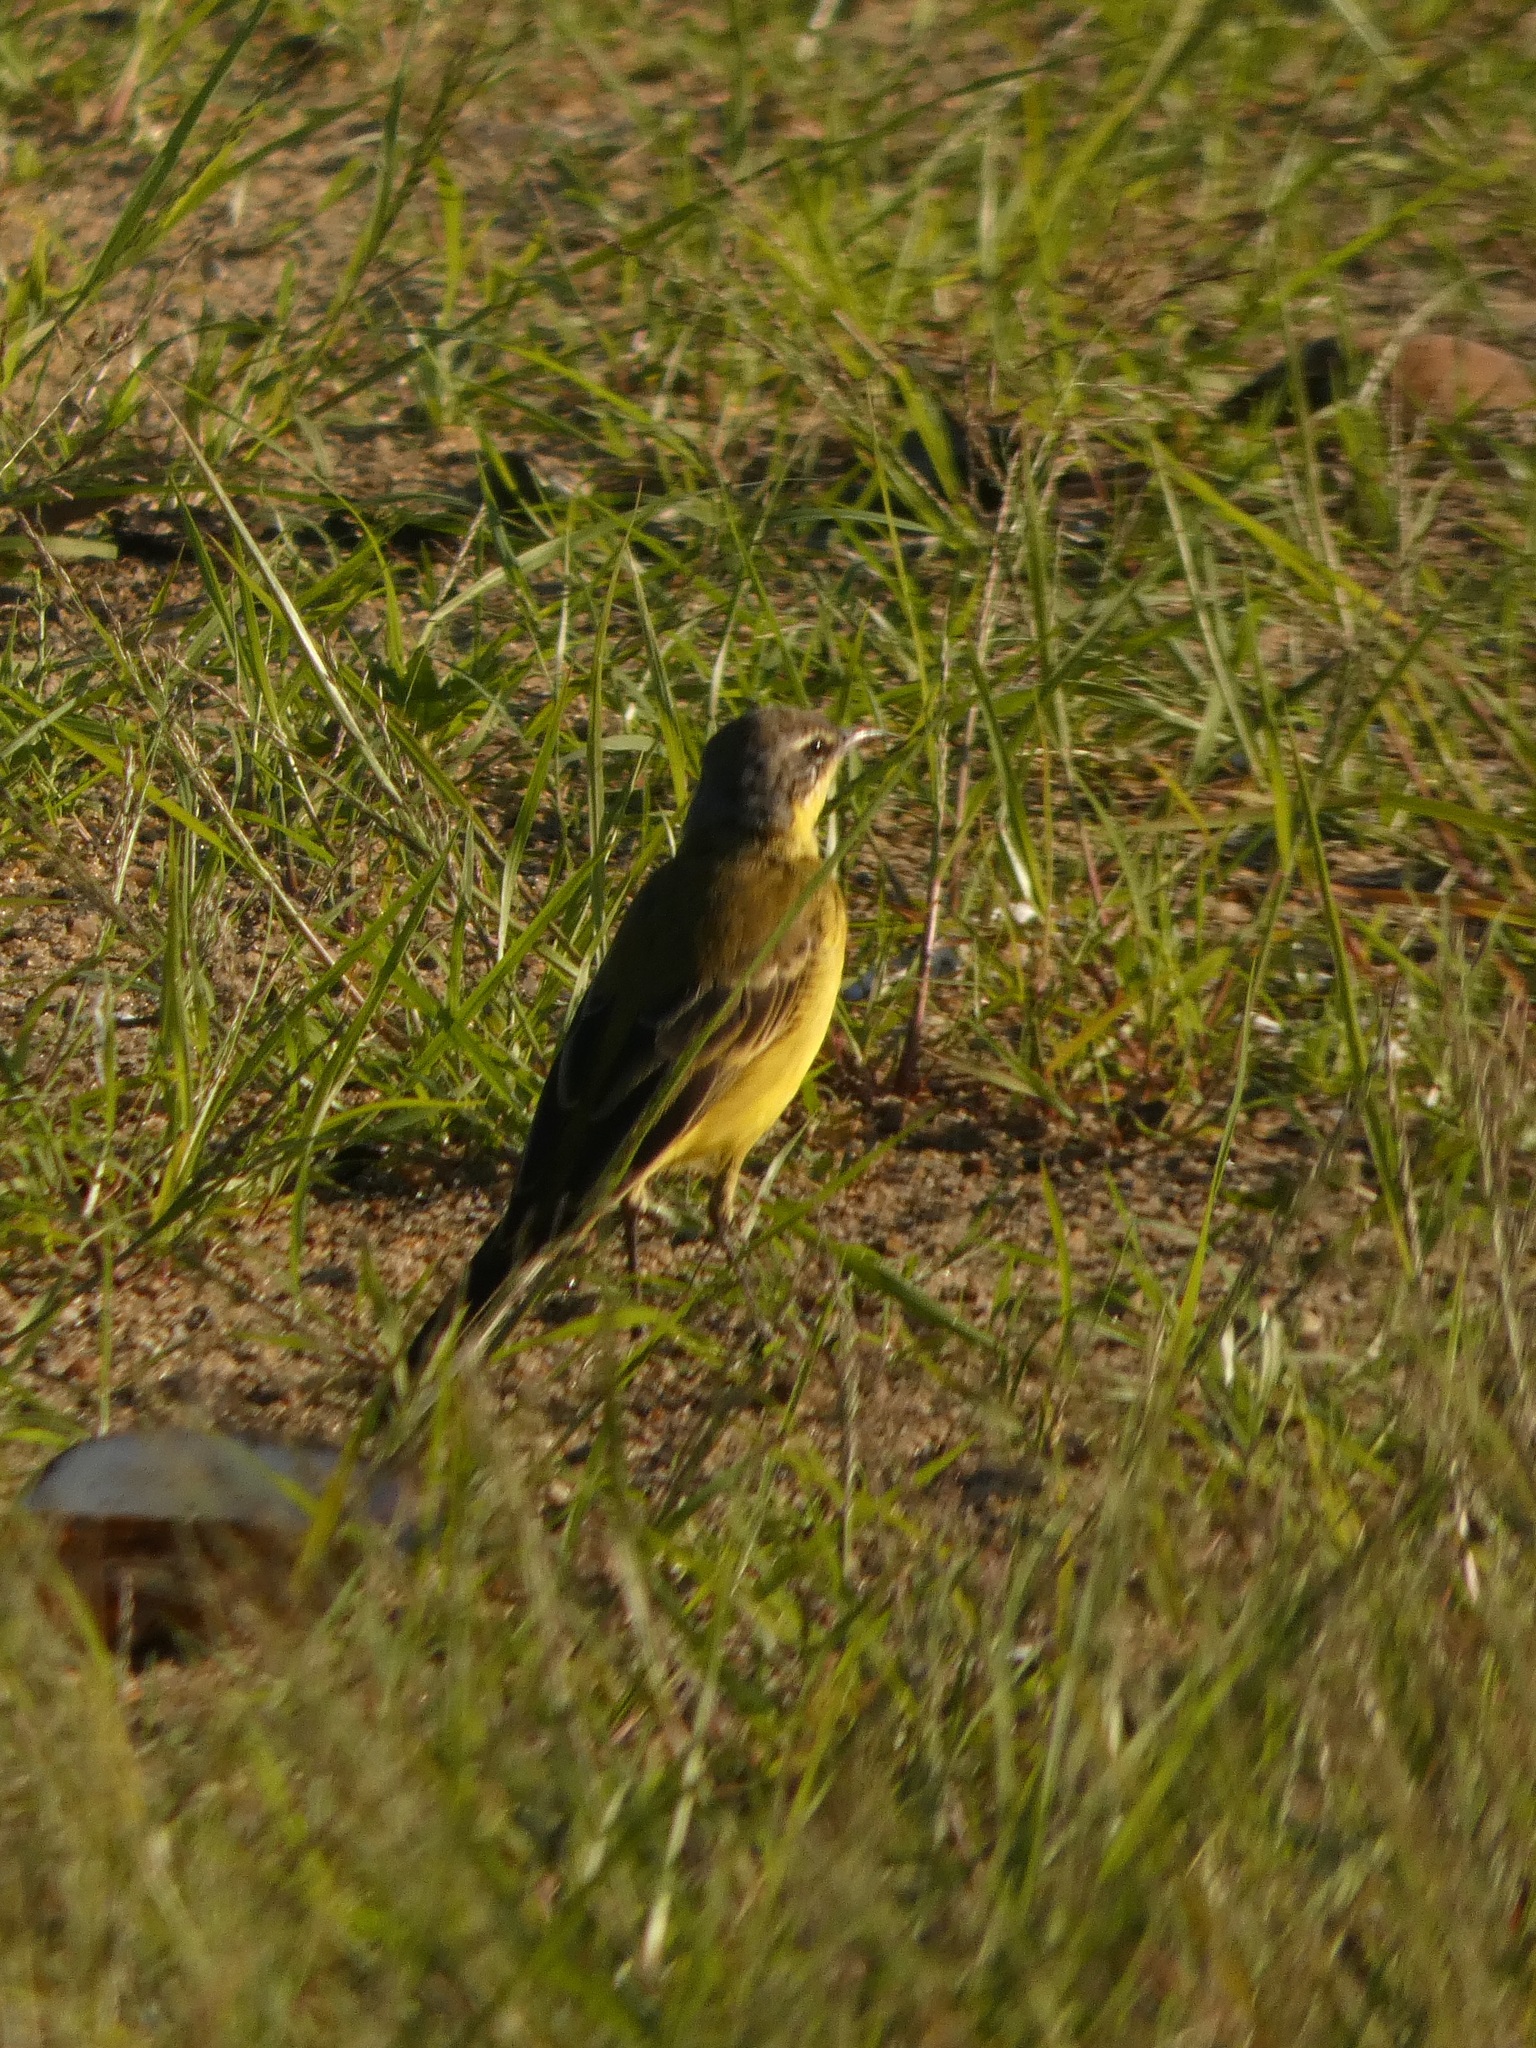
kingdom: Animalia
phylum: Chordata
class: Aves
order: Passeriformes
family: Motacillidae
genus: Motacilla
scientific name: Motacilla flava
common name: Western yellow wagtail
